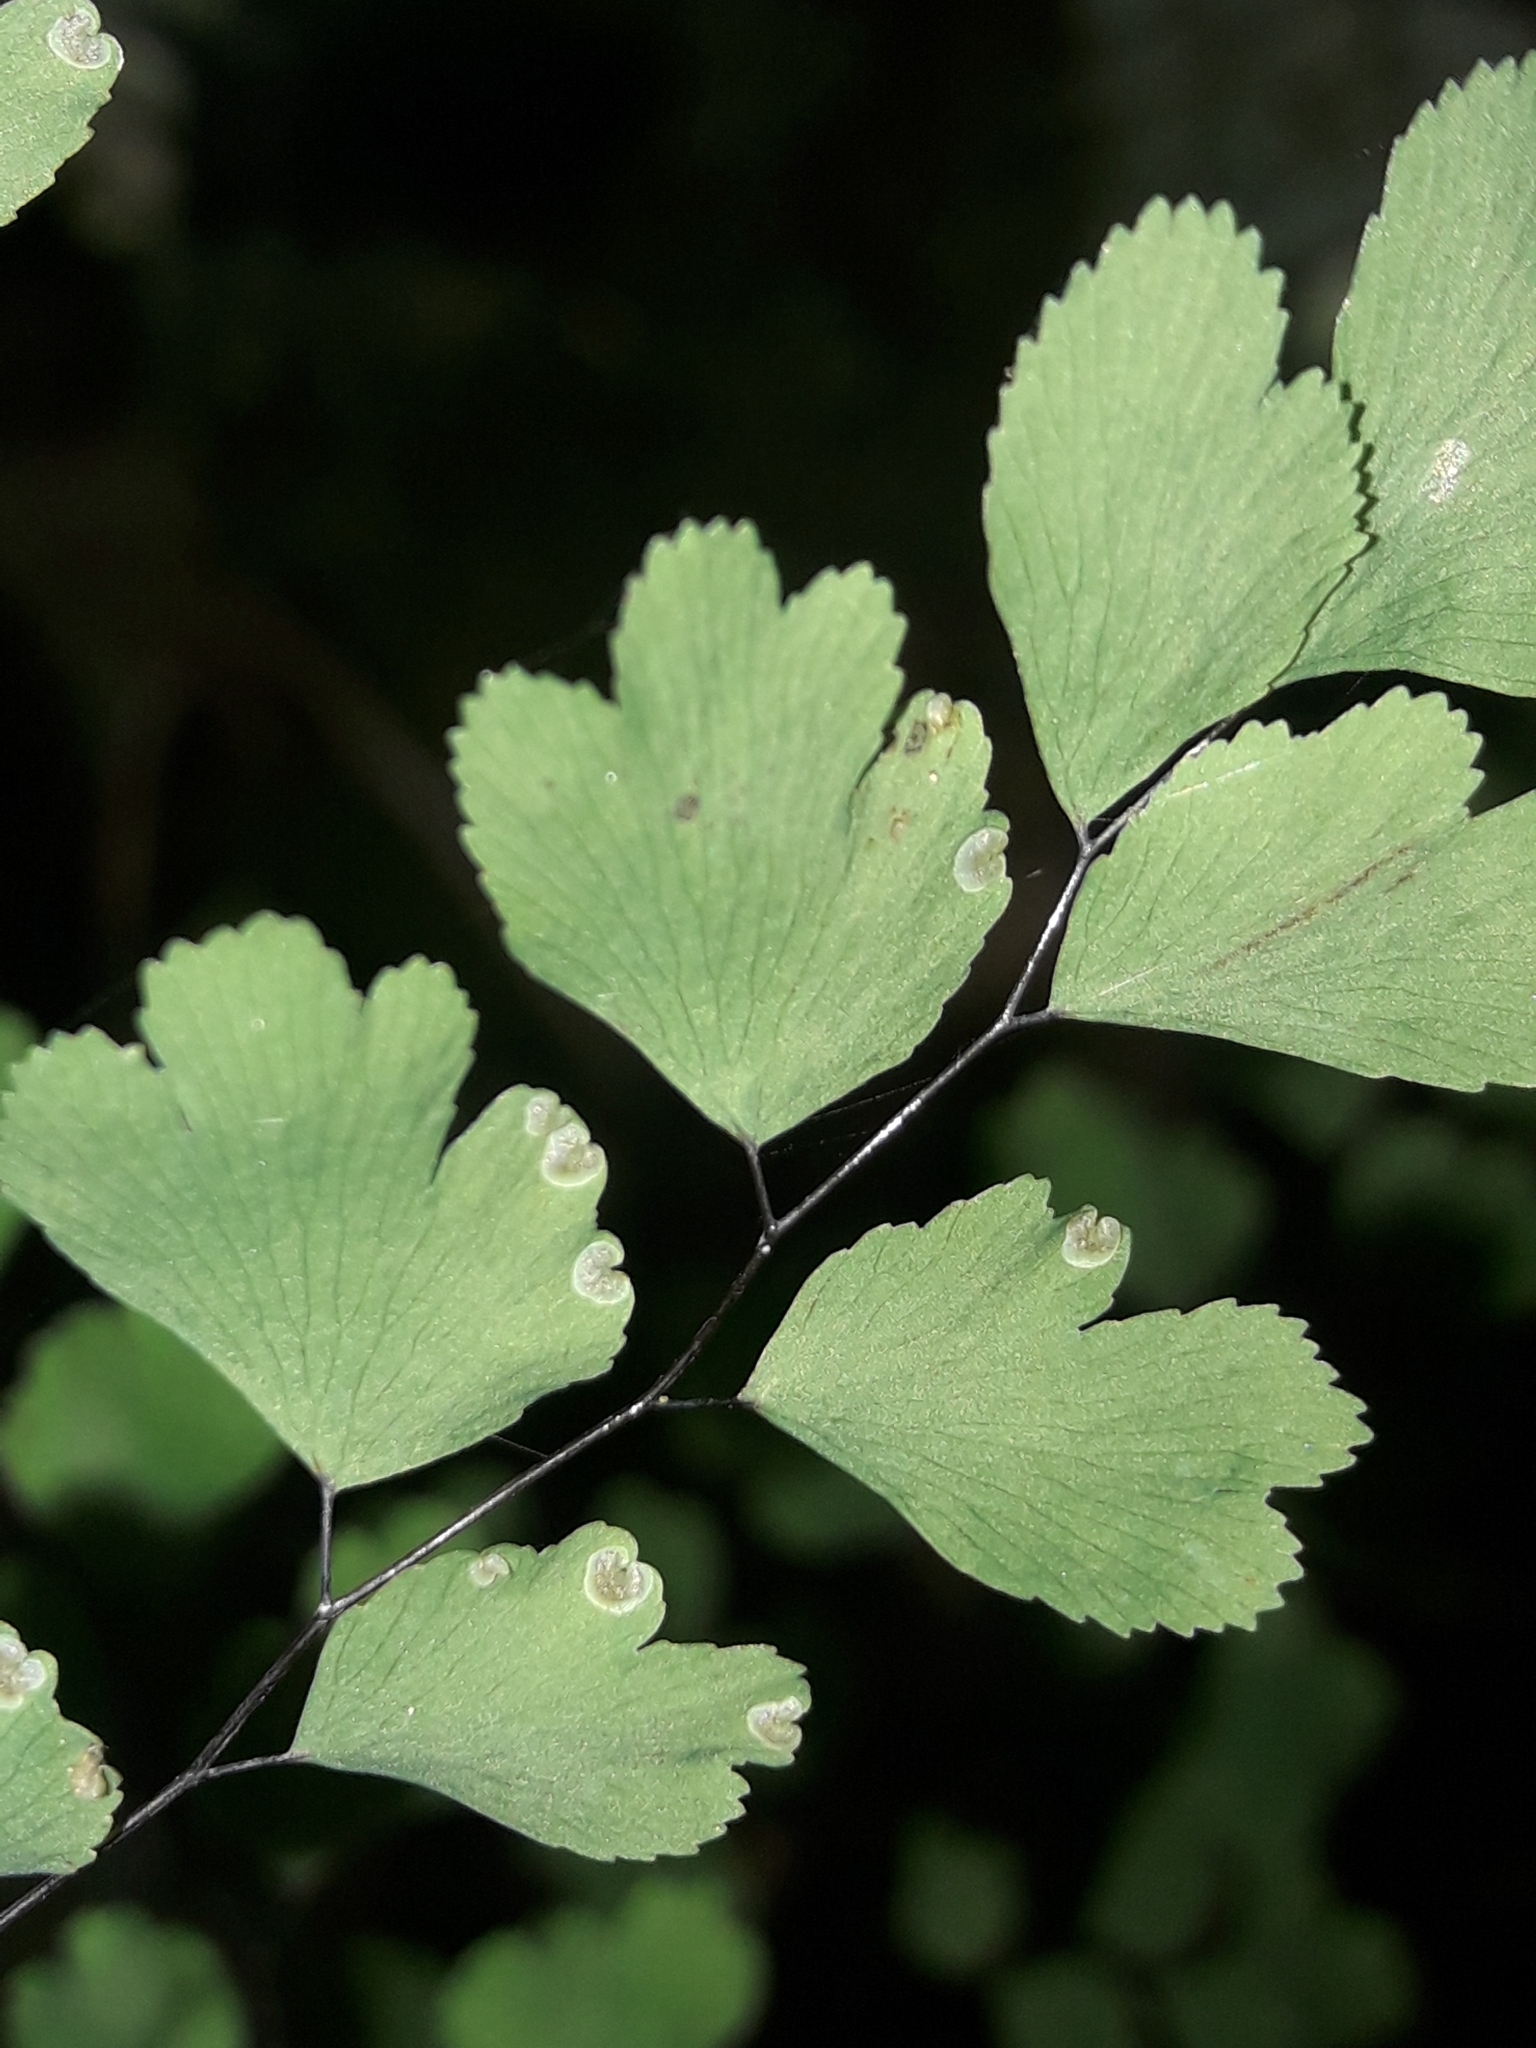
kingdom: Plantae
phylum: Tracheophyta
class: Polypodiopsida
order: Polypodiales
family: Pteridaceae
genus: Adiantum
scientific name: Adiantum raddianum
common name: Delta maidenhair fern
